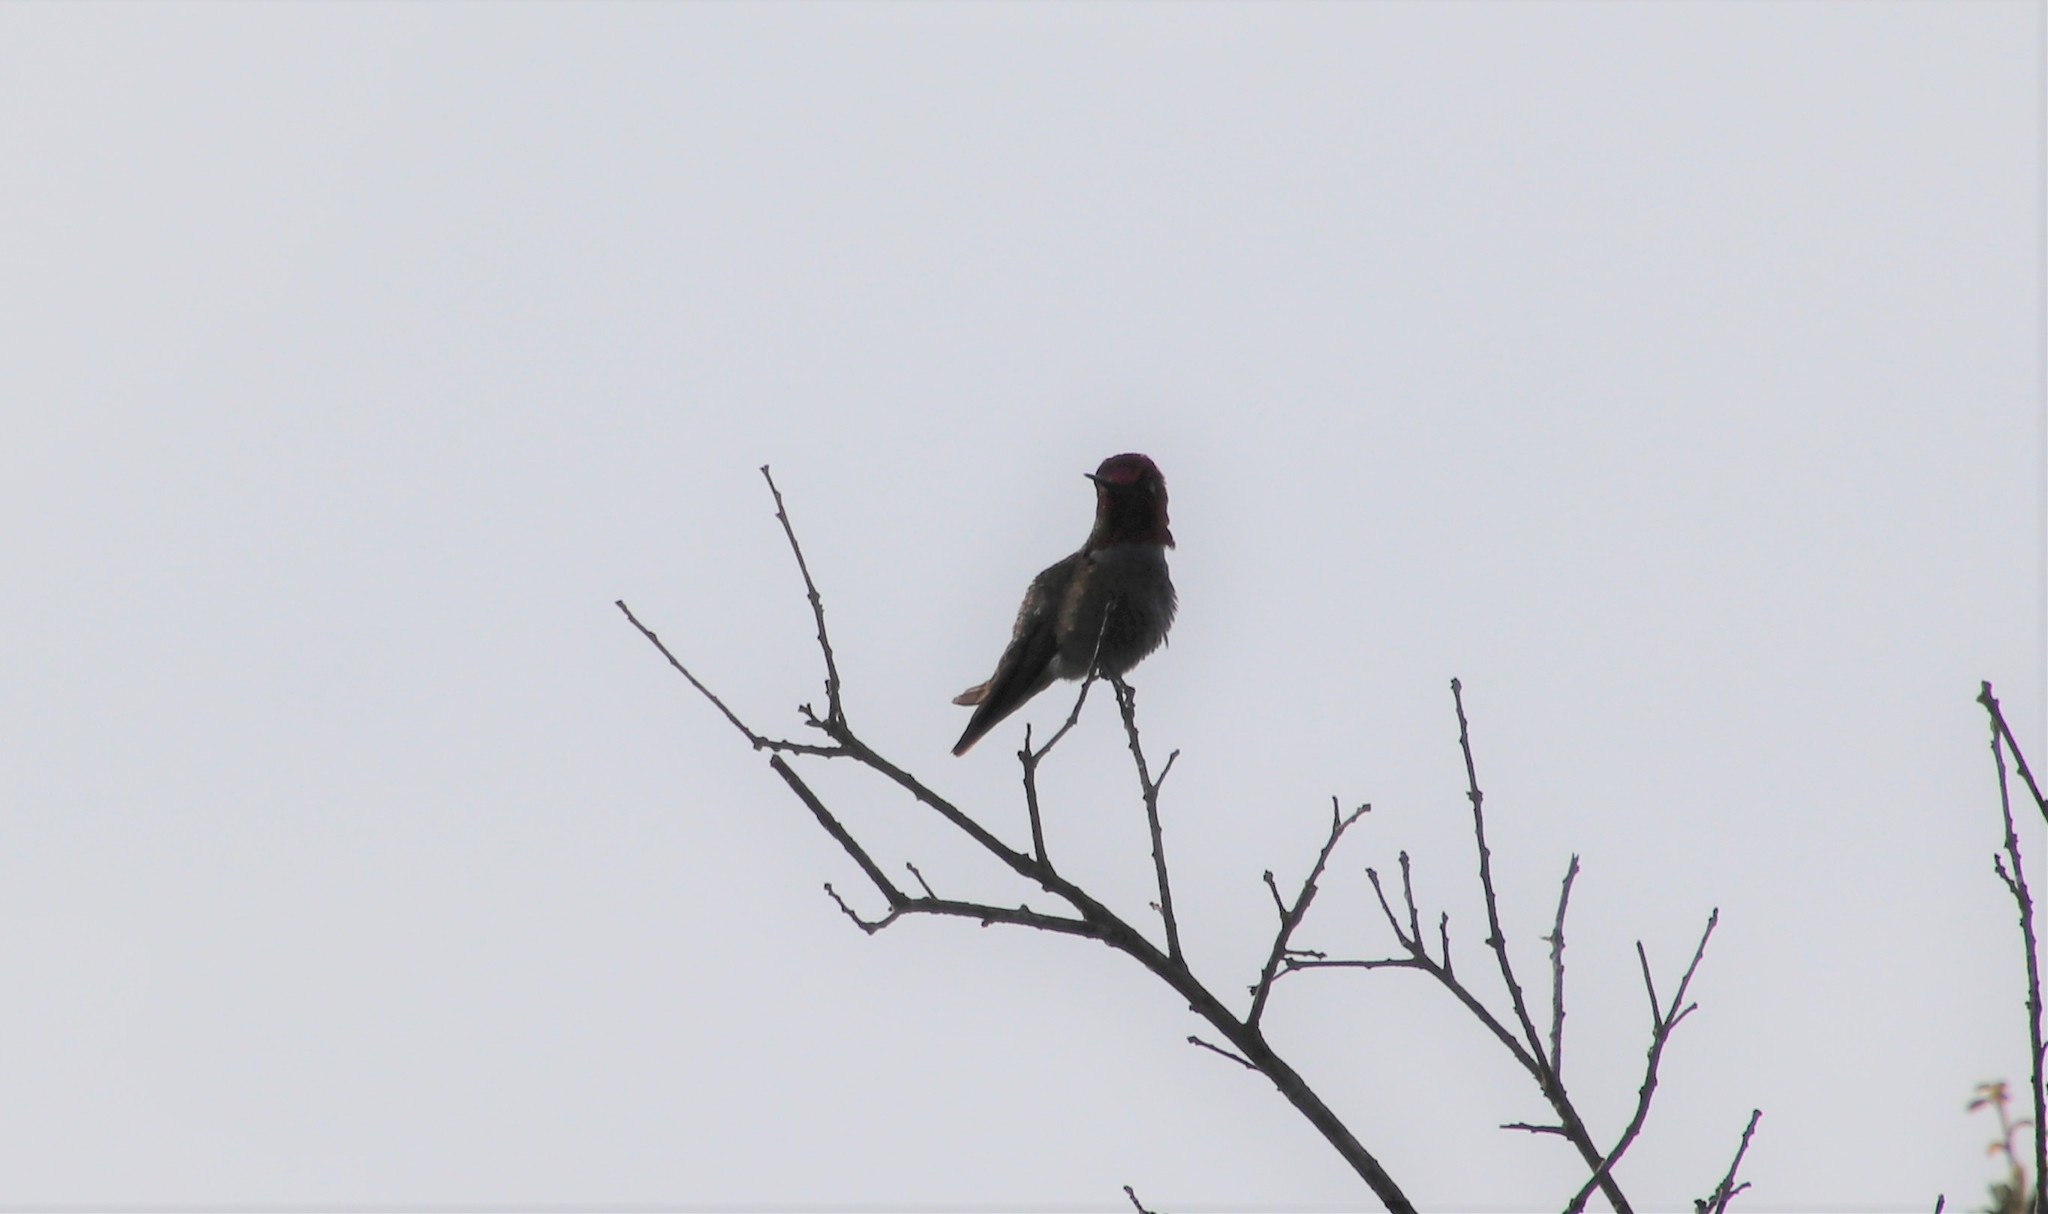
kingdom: Animalia
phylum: Chordata
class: Aves
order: Apodiformes
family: Trochilidae
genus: Calypte
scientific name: Calypte anna
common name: Anna's hummingbird
